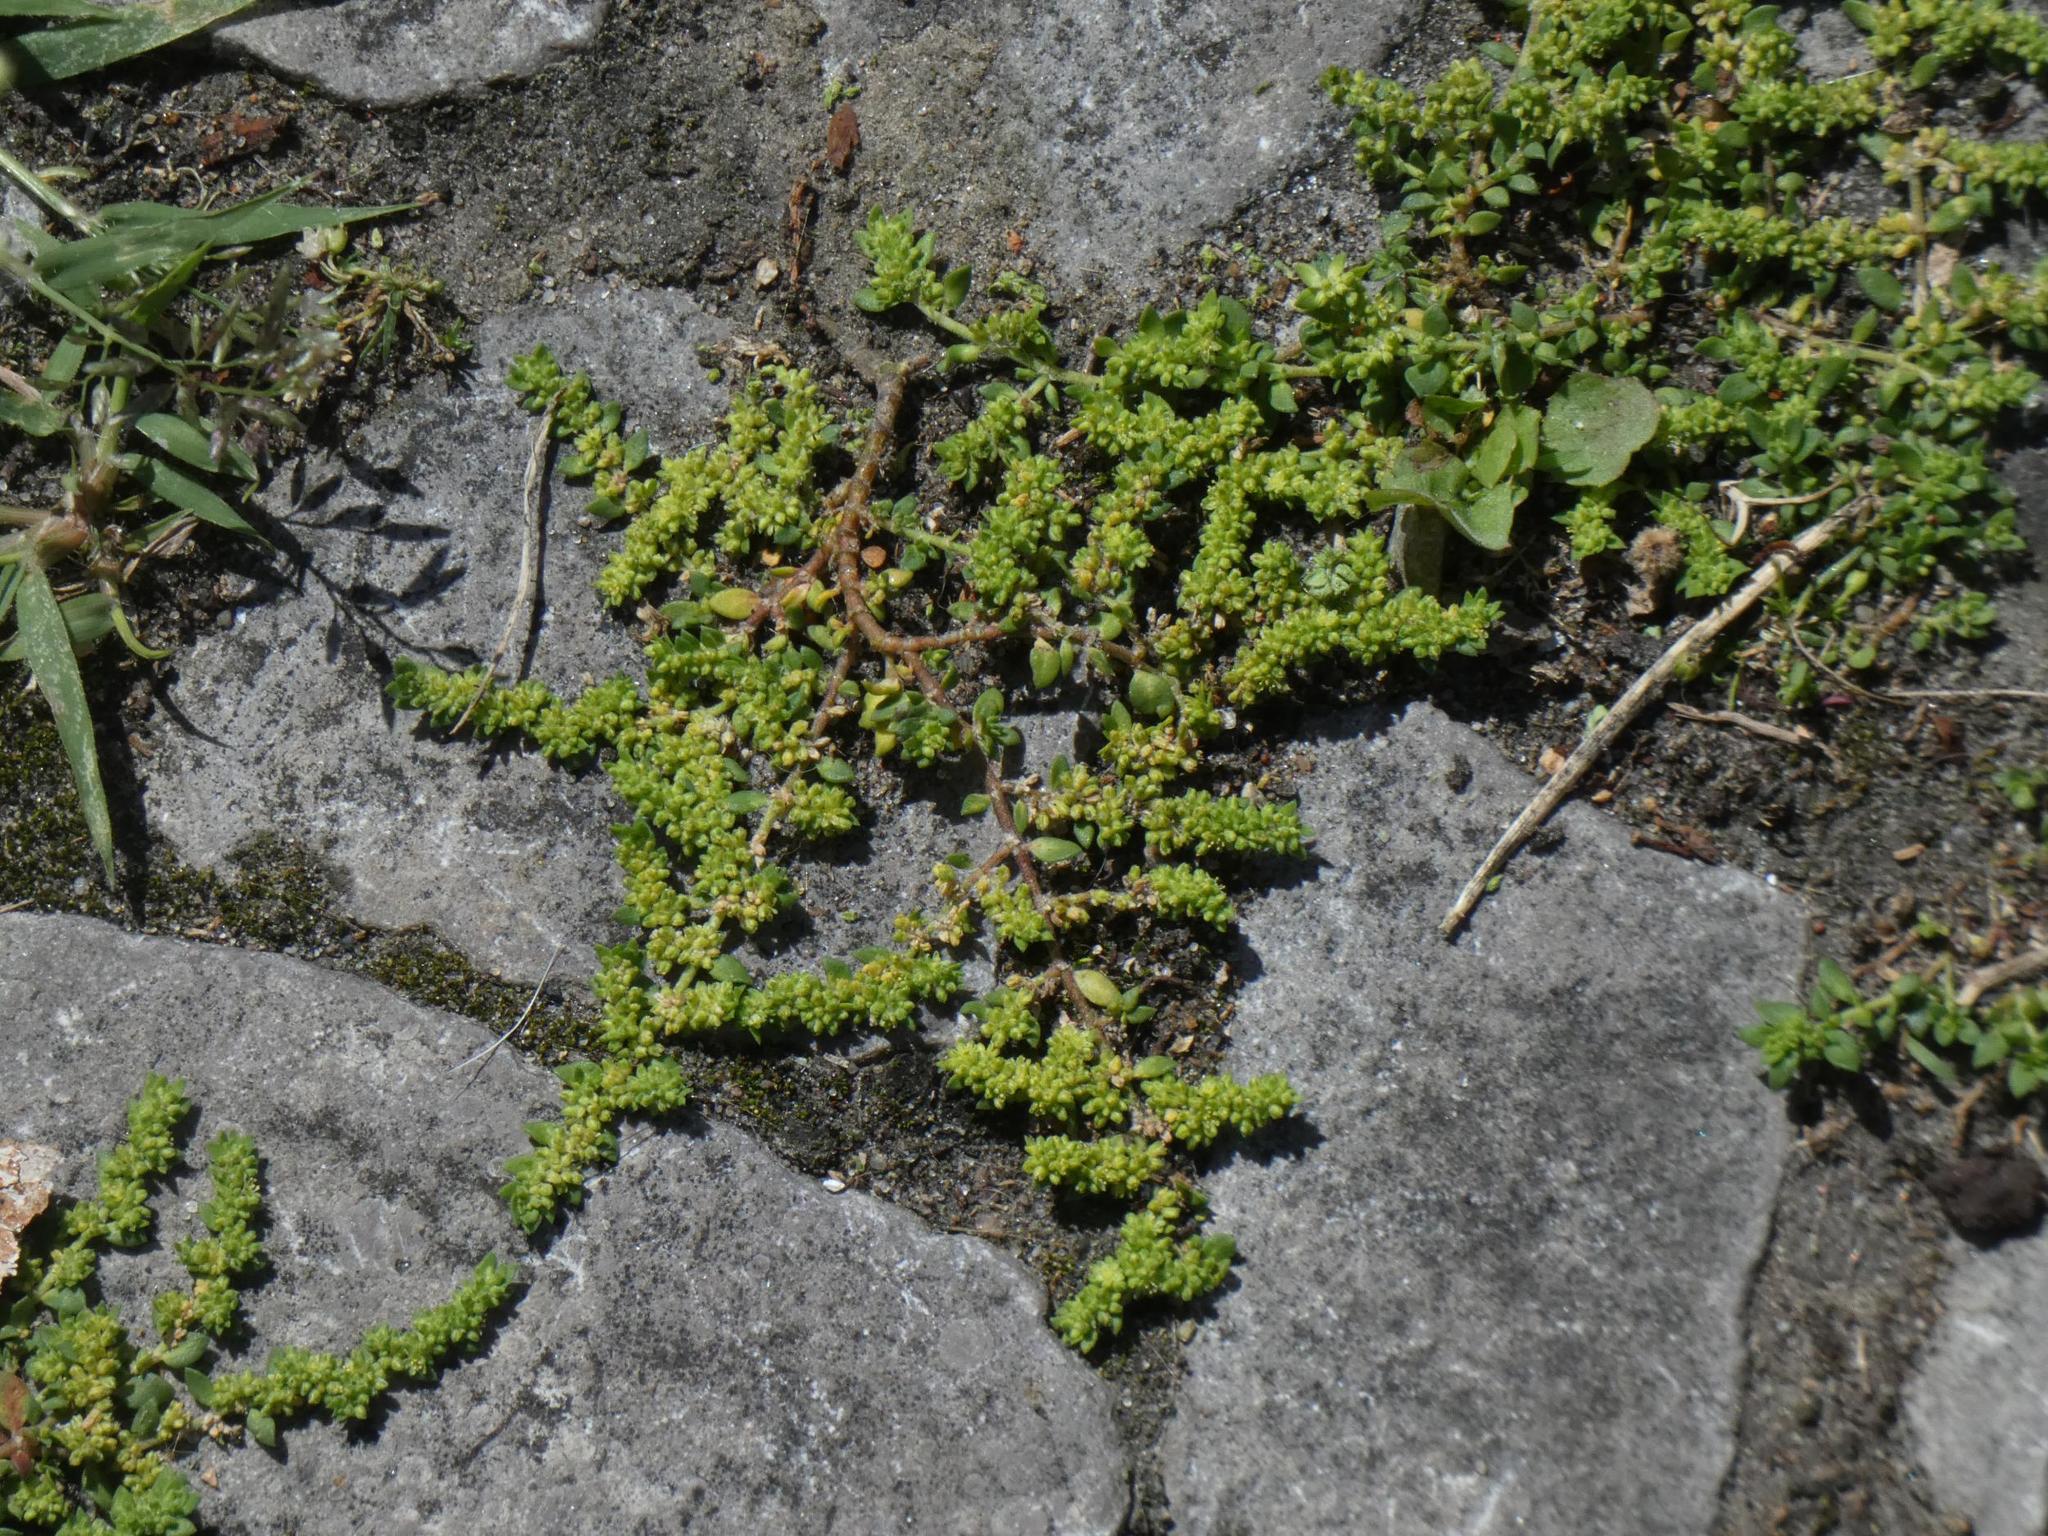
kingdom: Plantae
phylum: Tracheophyta
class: Magnoliopsida
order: Caryophyllales
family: Caryophyllaceae
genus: Herniaria
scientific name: Herniaria glabra
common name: Smooth rupturewort
